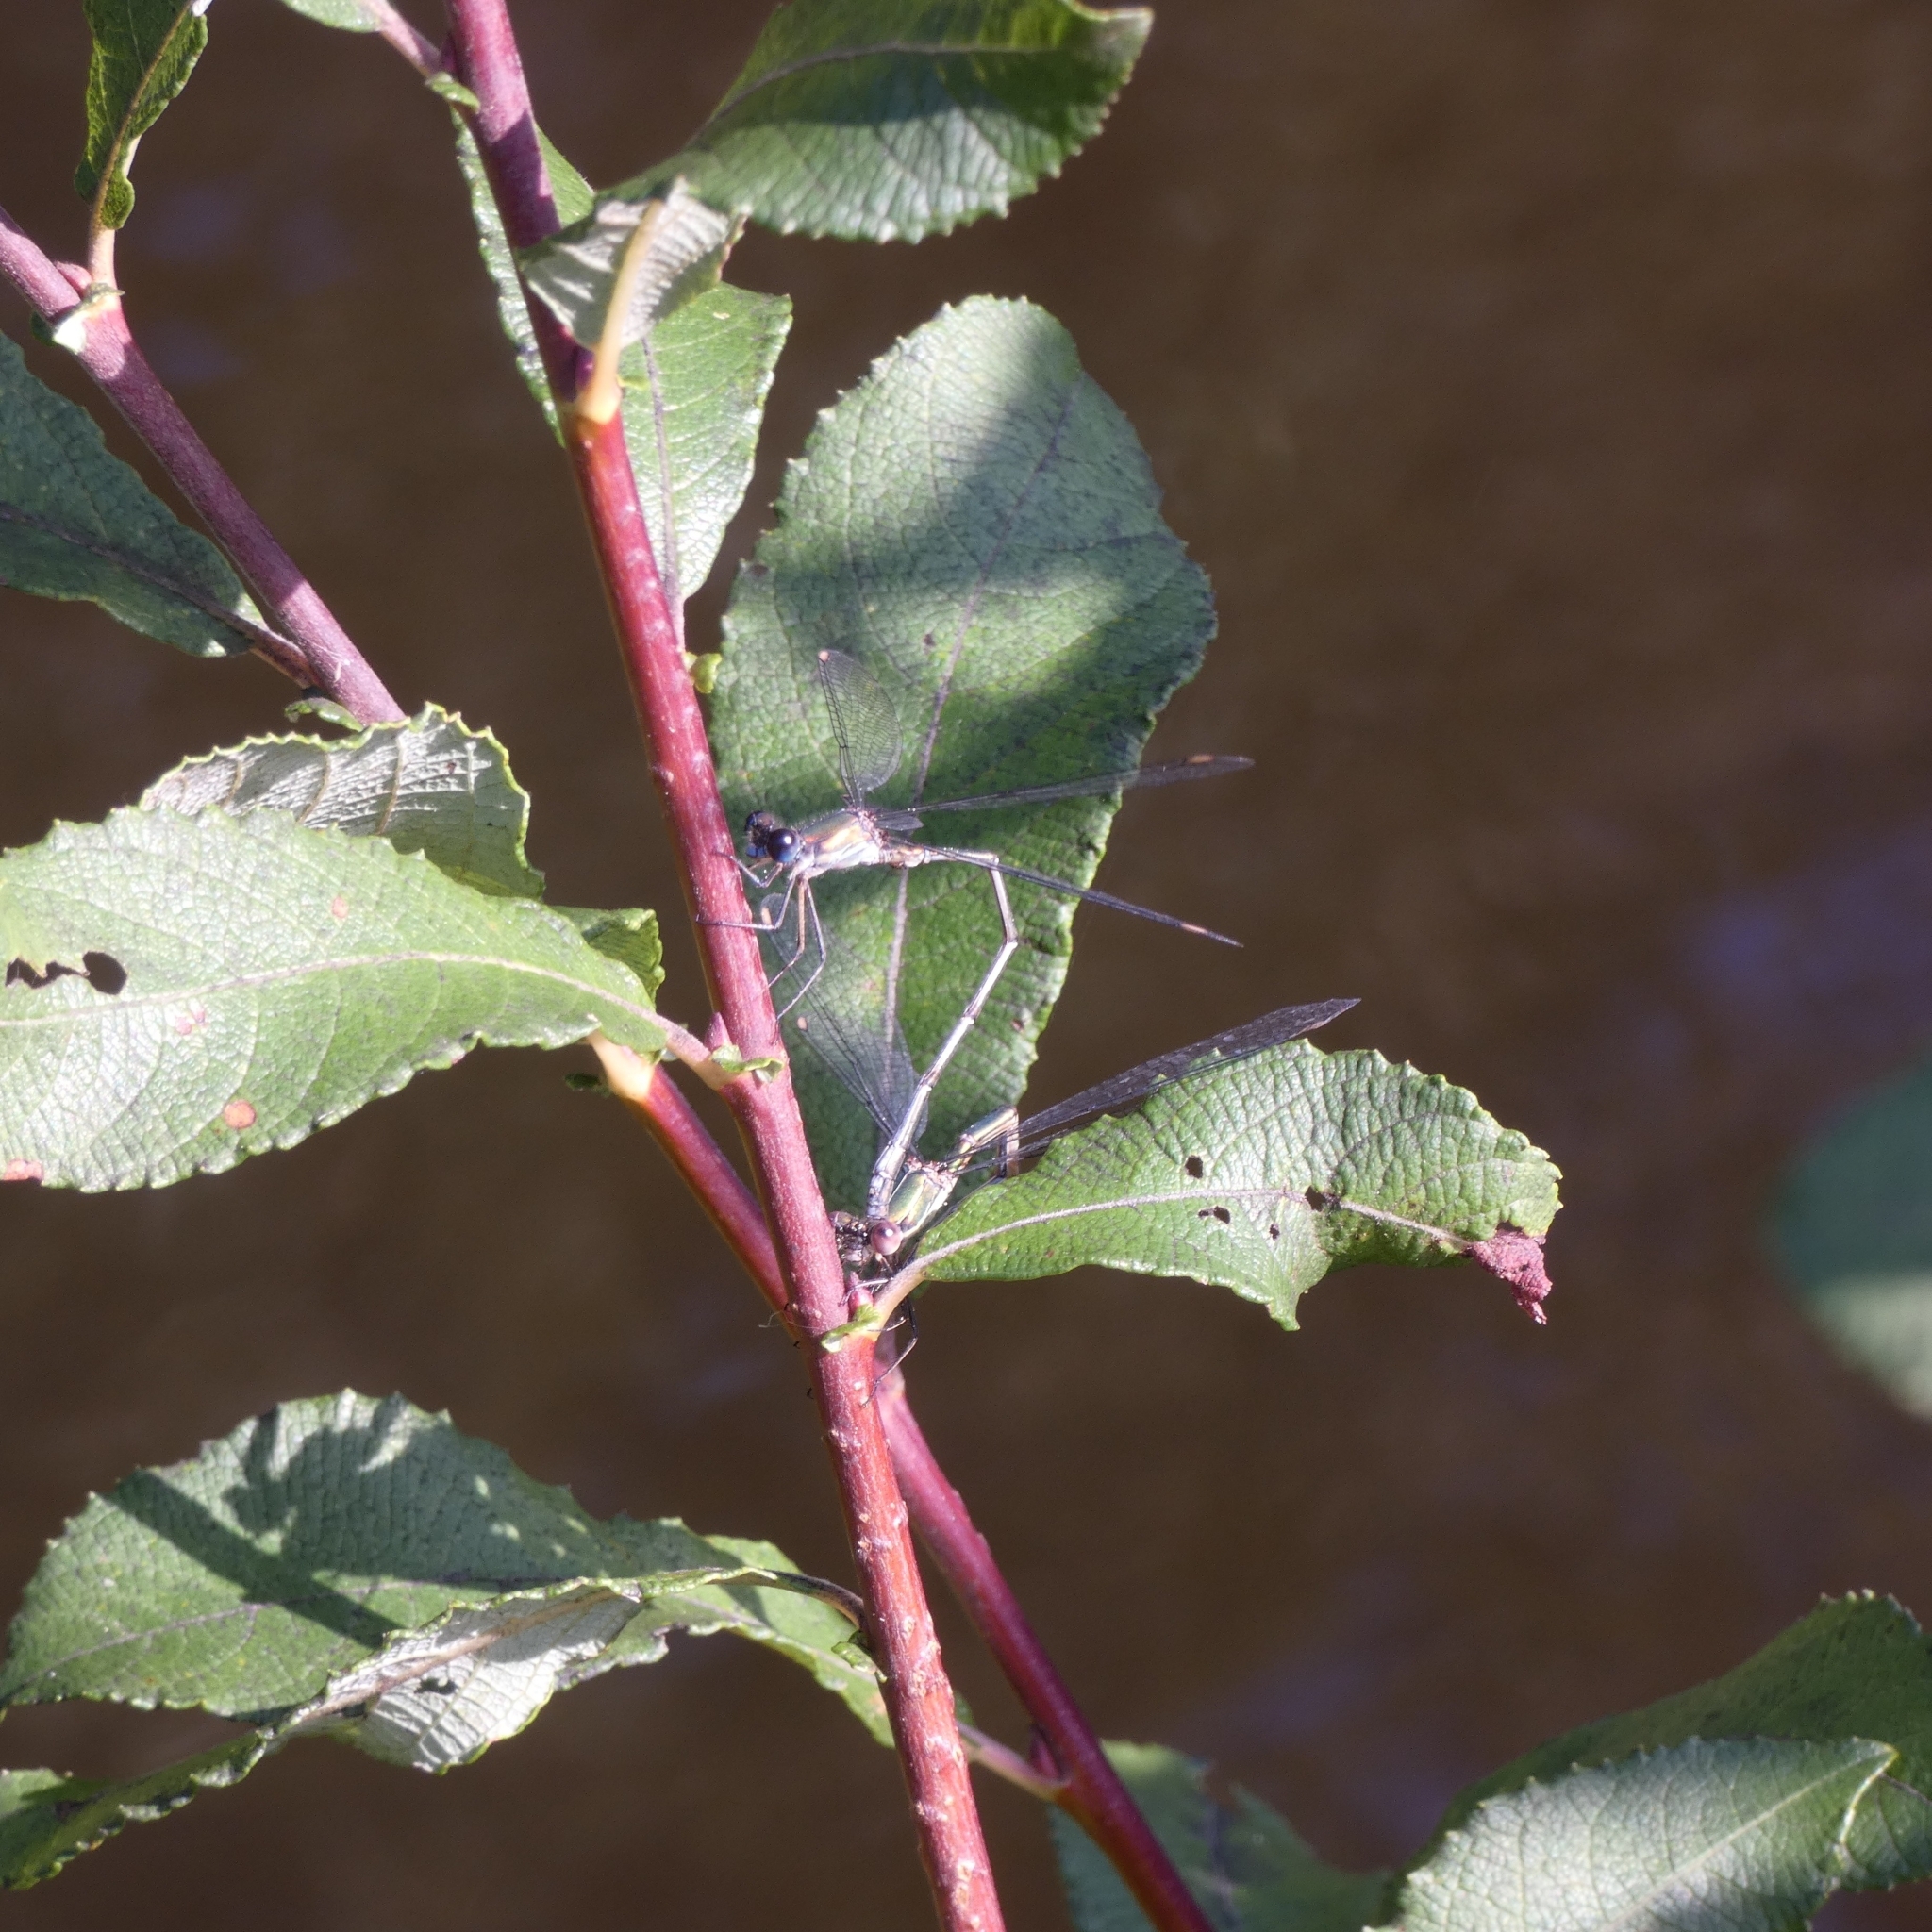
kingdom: Animalia
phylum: Arthropoda
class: Insecta
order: Odonata
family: Lestidae
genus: Chalcolestes
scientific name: Chalcolestes viridis
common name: Green emerald damselfly
